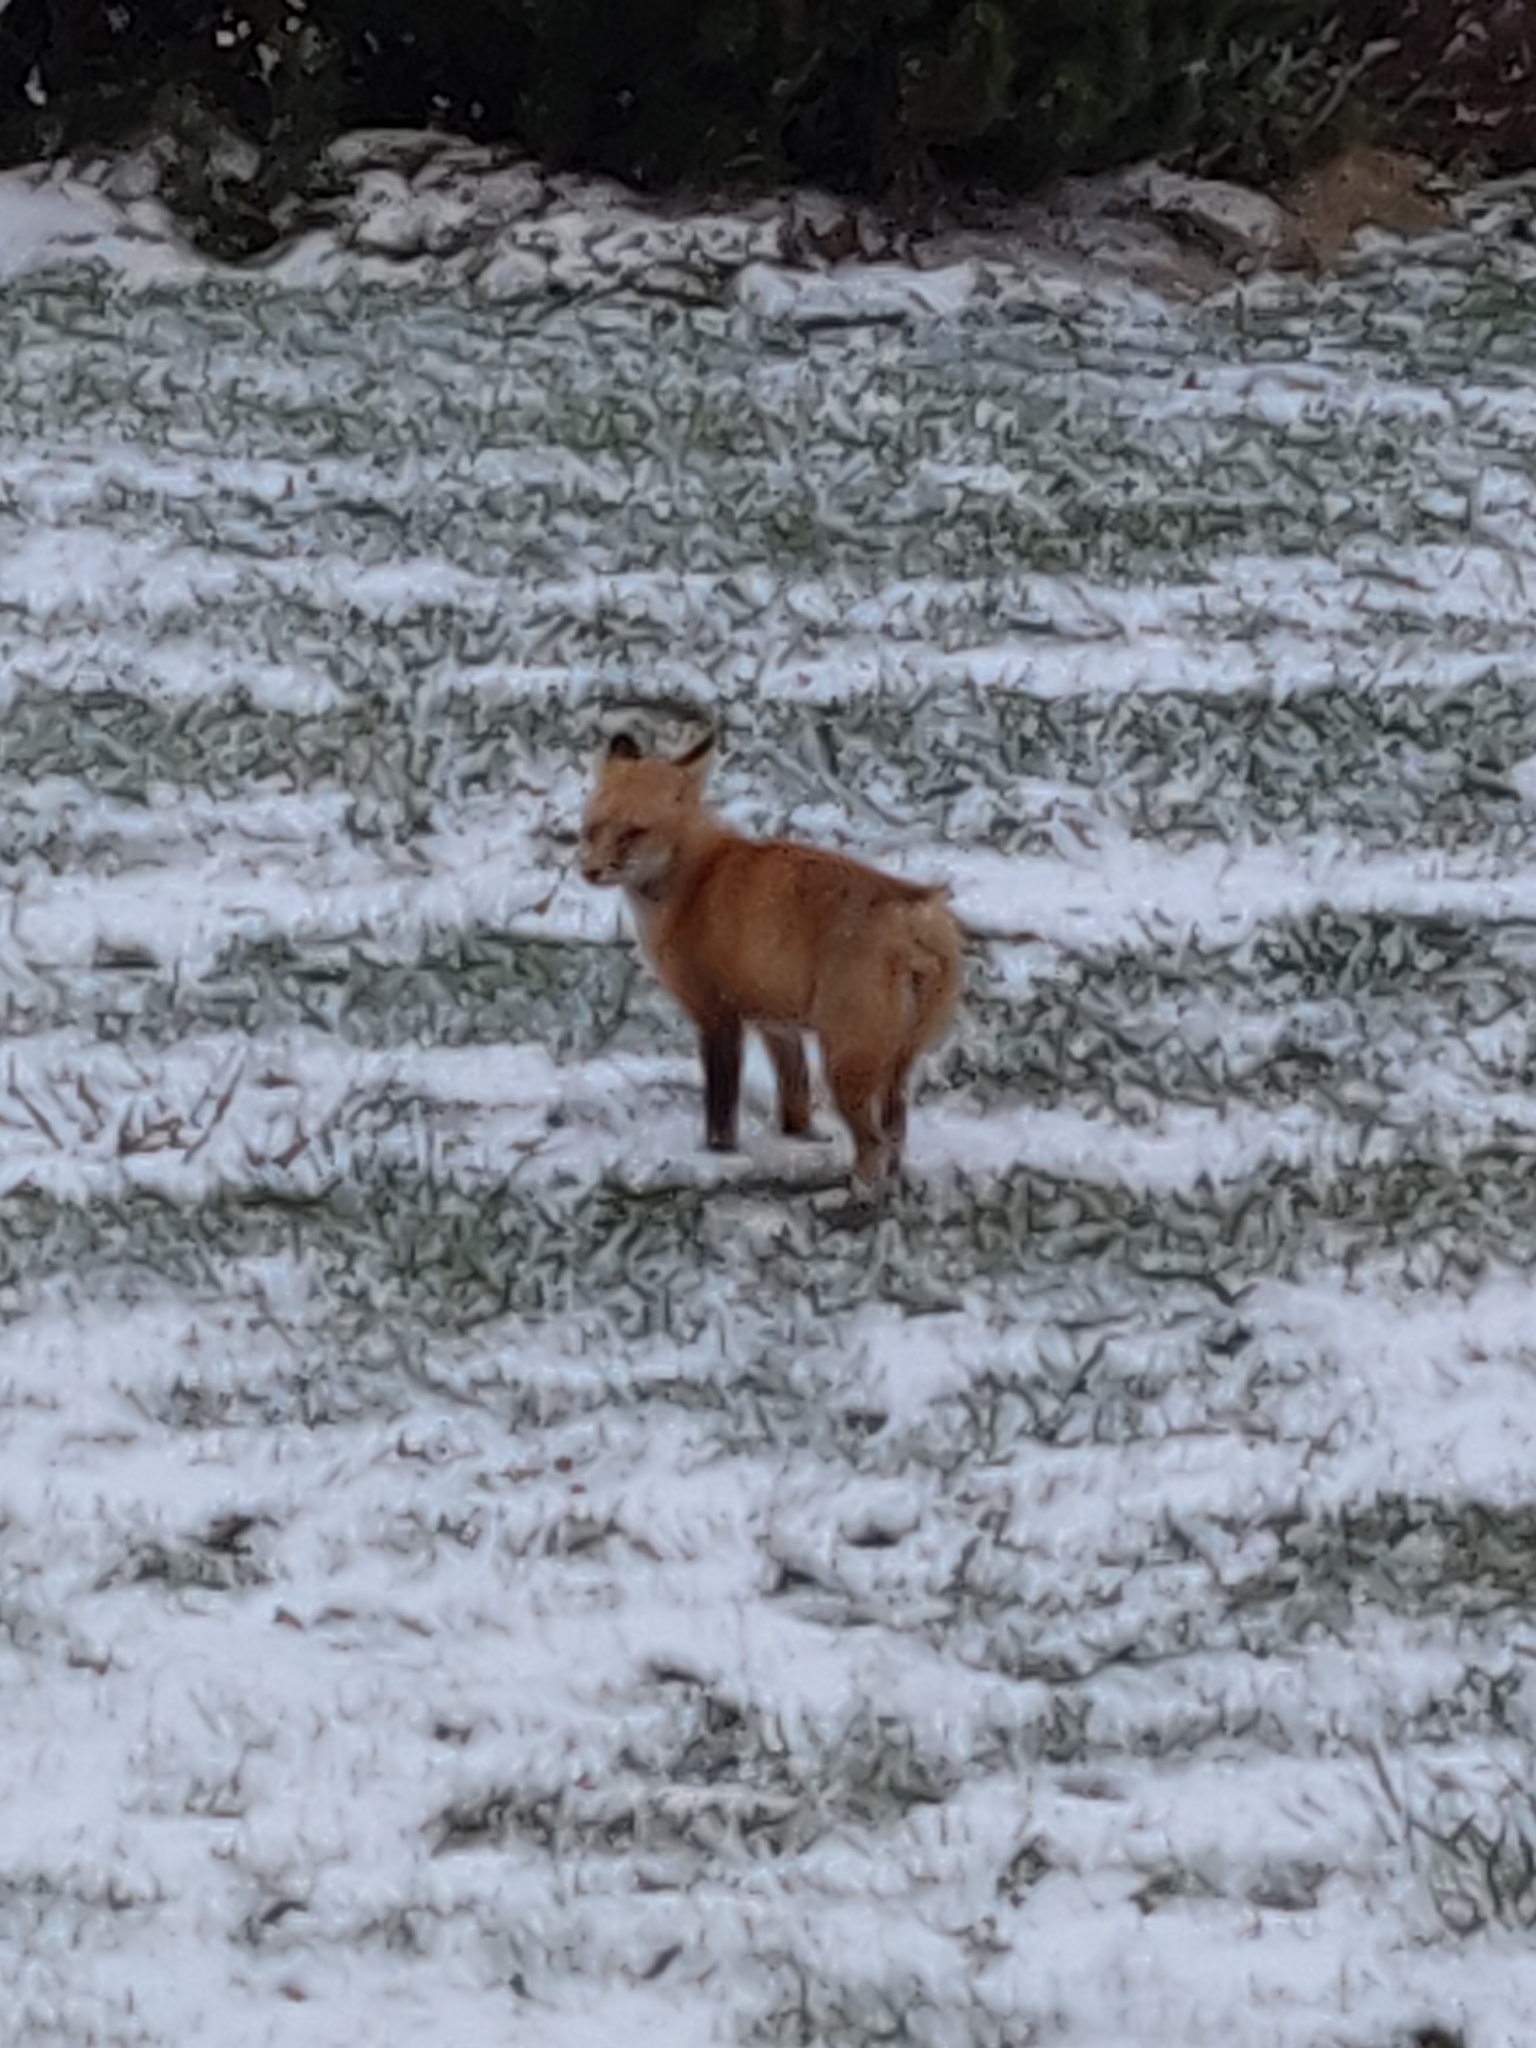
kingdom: Animalia
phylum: Chordata
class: Mammalia
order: Carnivora
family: Canidae
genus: Vulpes
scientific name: Vulpes vulpes
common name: Red fox
